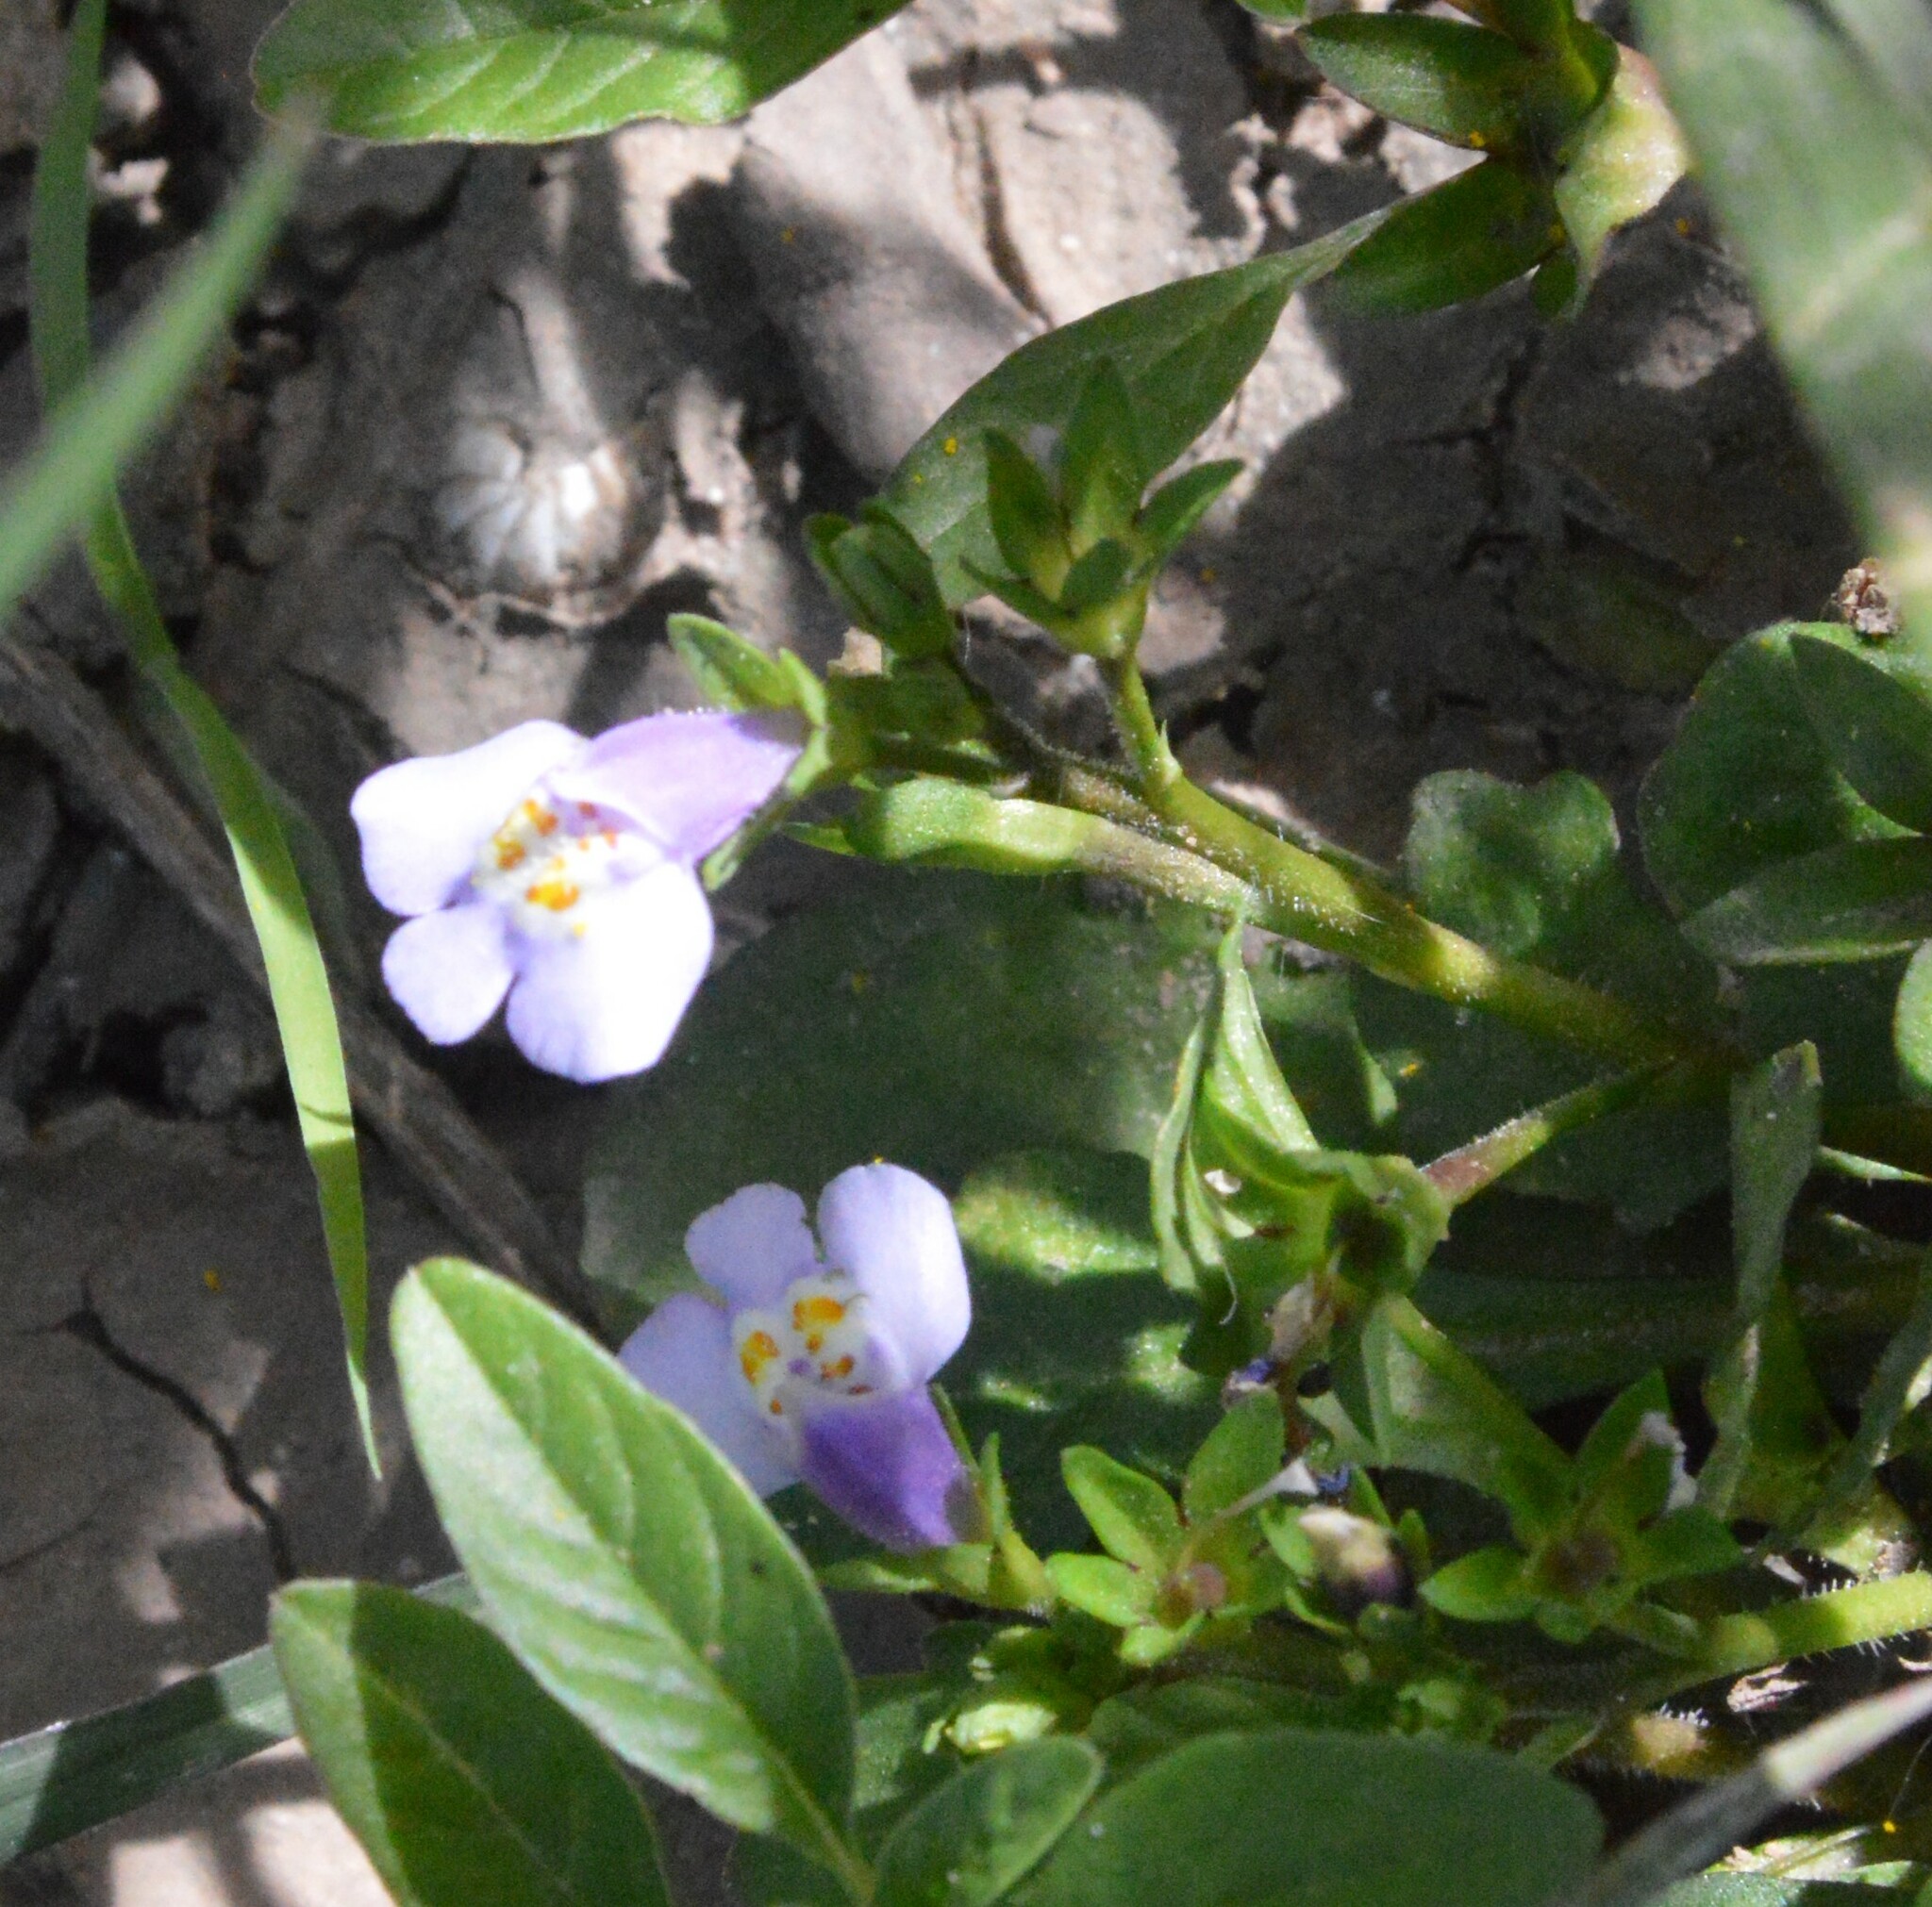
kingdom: Plantae
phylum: Tracheophyta
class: Magnoliopsida
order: Lamiales
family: Mazaceae
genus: Mazus
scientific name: Mazus pumilus
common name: Japanese mazus
